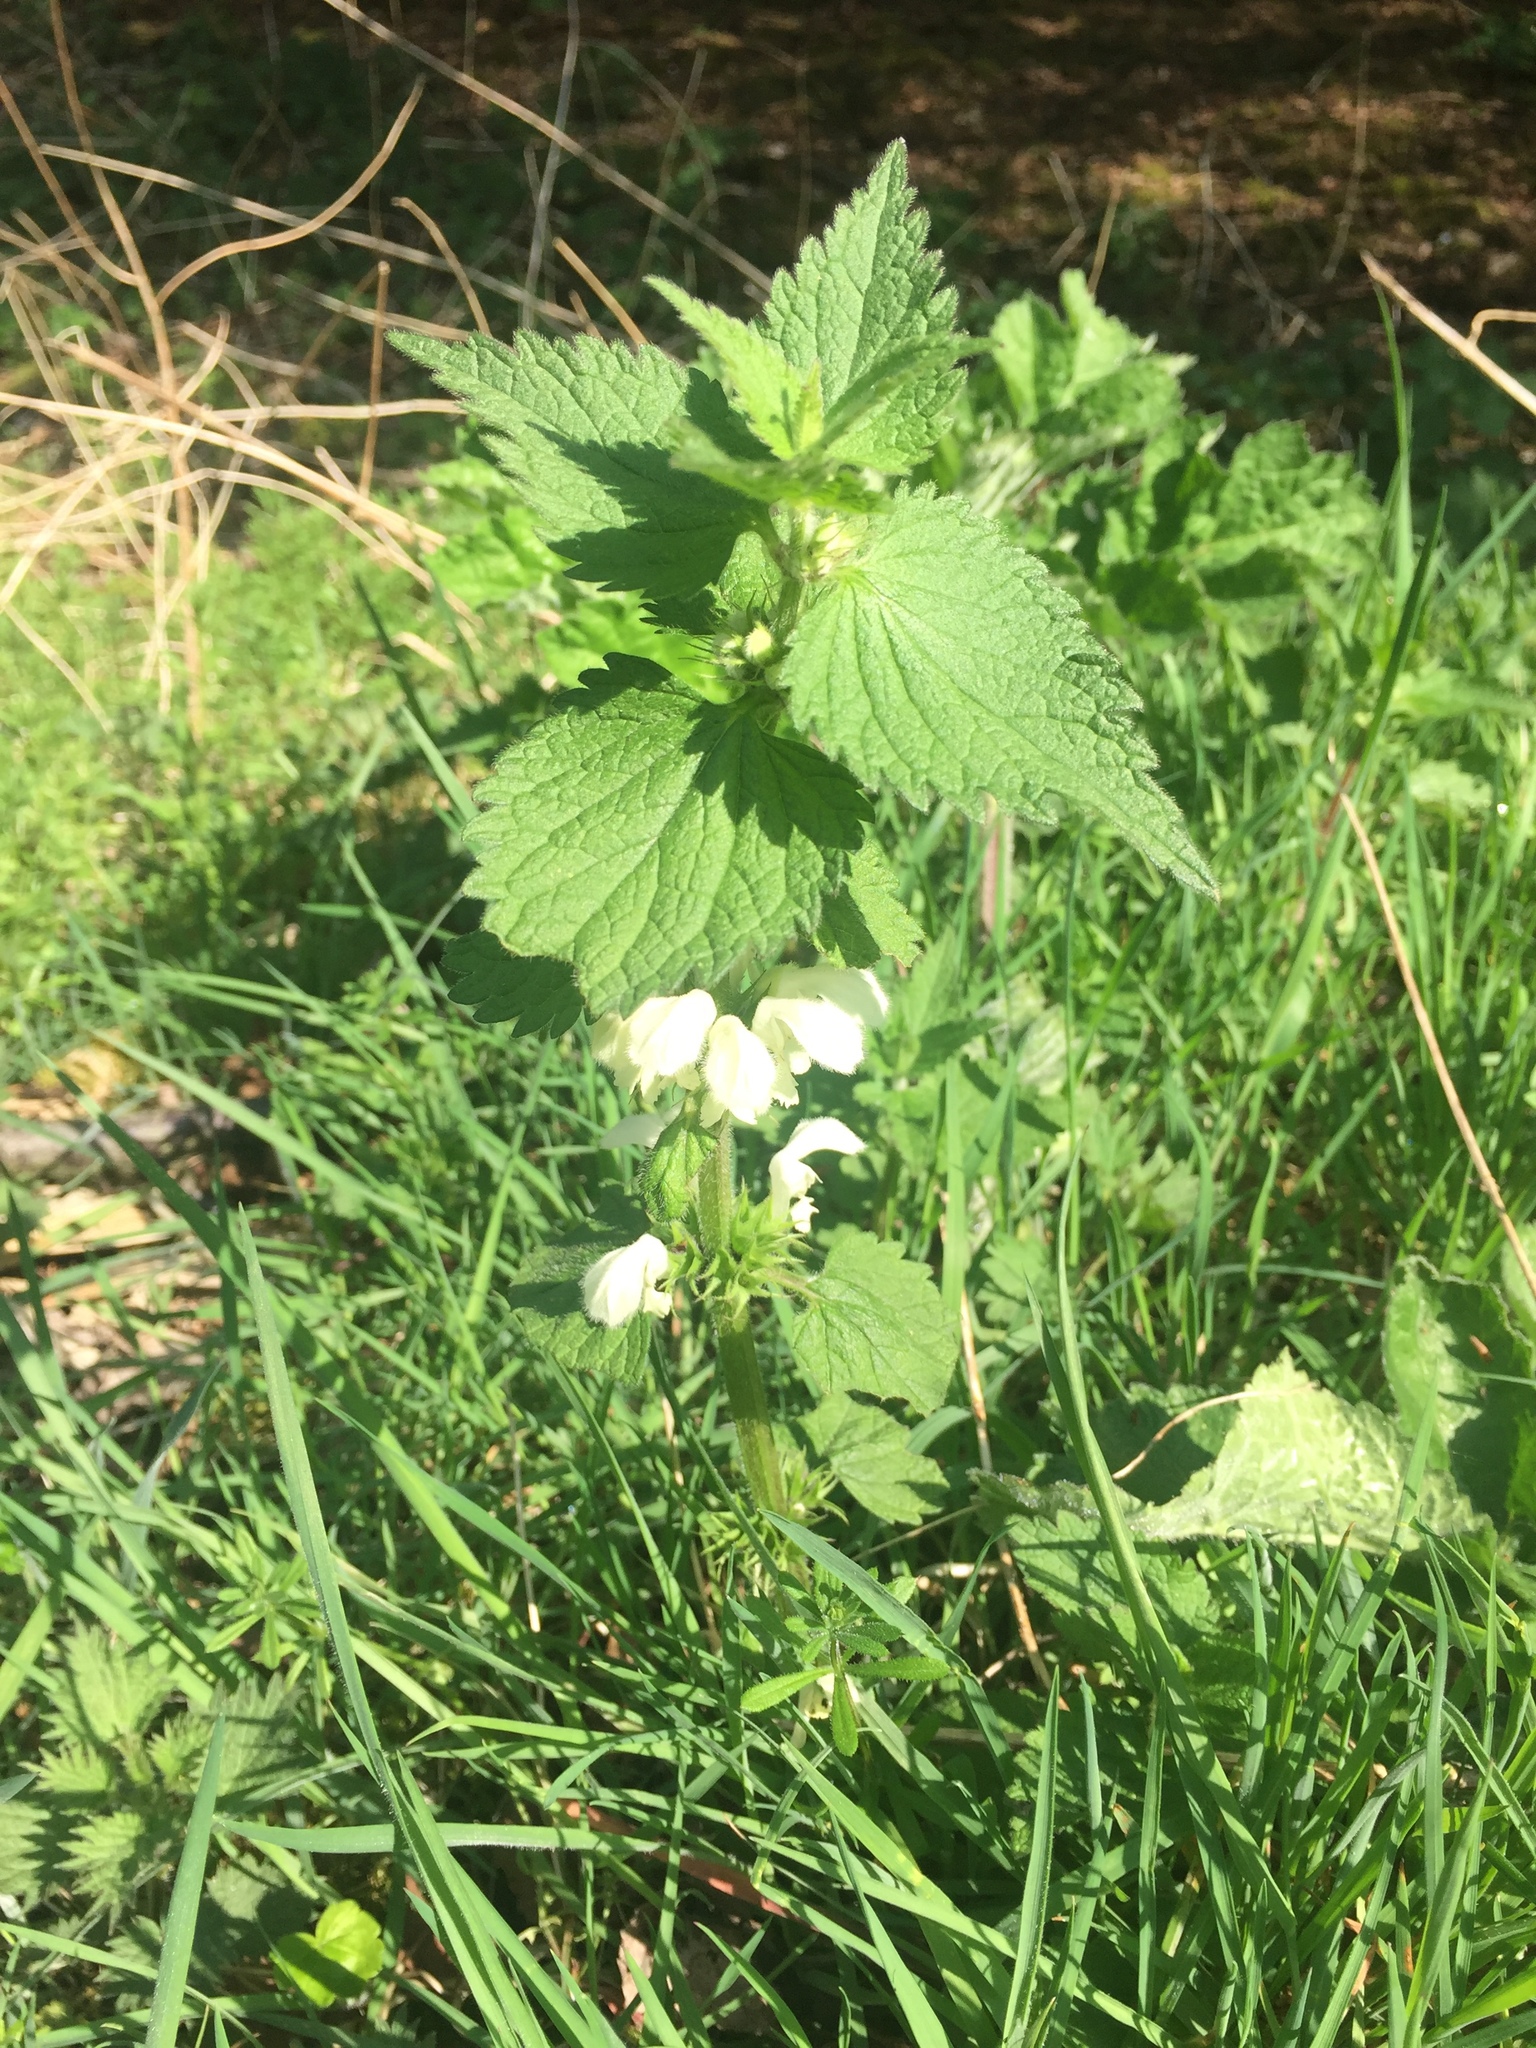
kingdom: Plantae
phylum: Tracheophyta
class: Magnoliopsida
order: Lamiales
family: Lamiaceae
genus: Lamium
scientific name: Lamium album
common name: White dead-nettle
